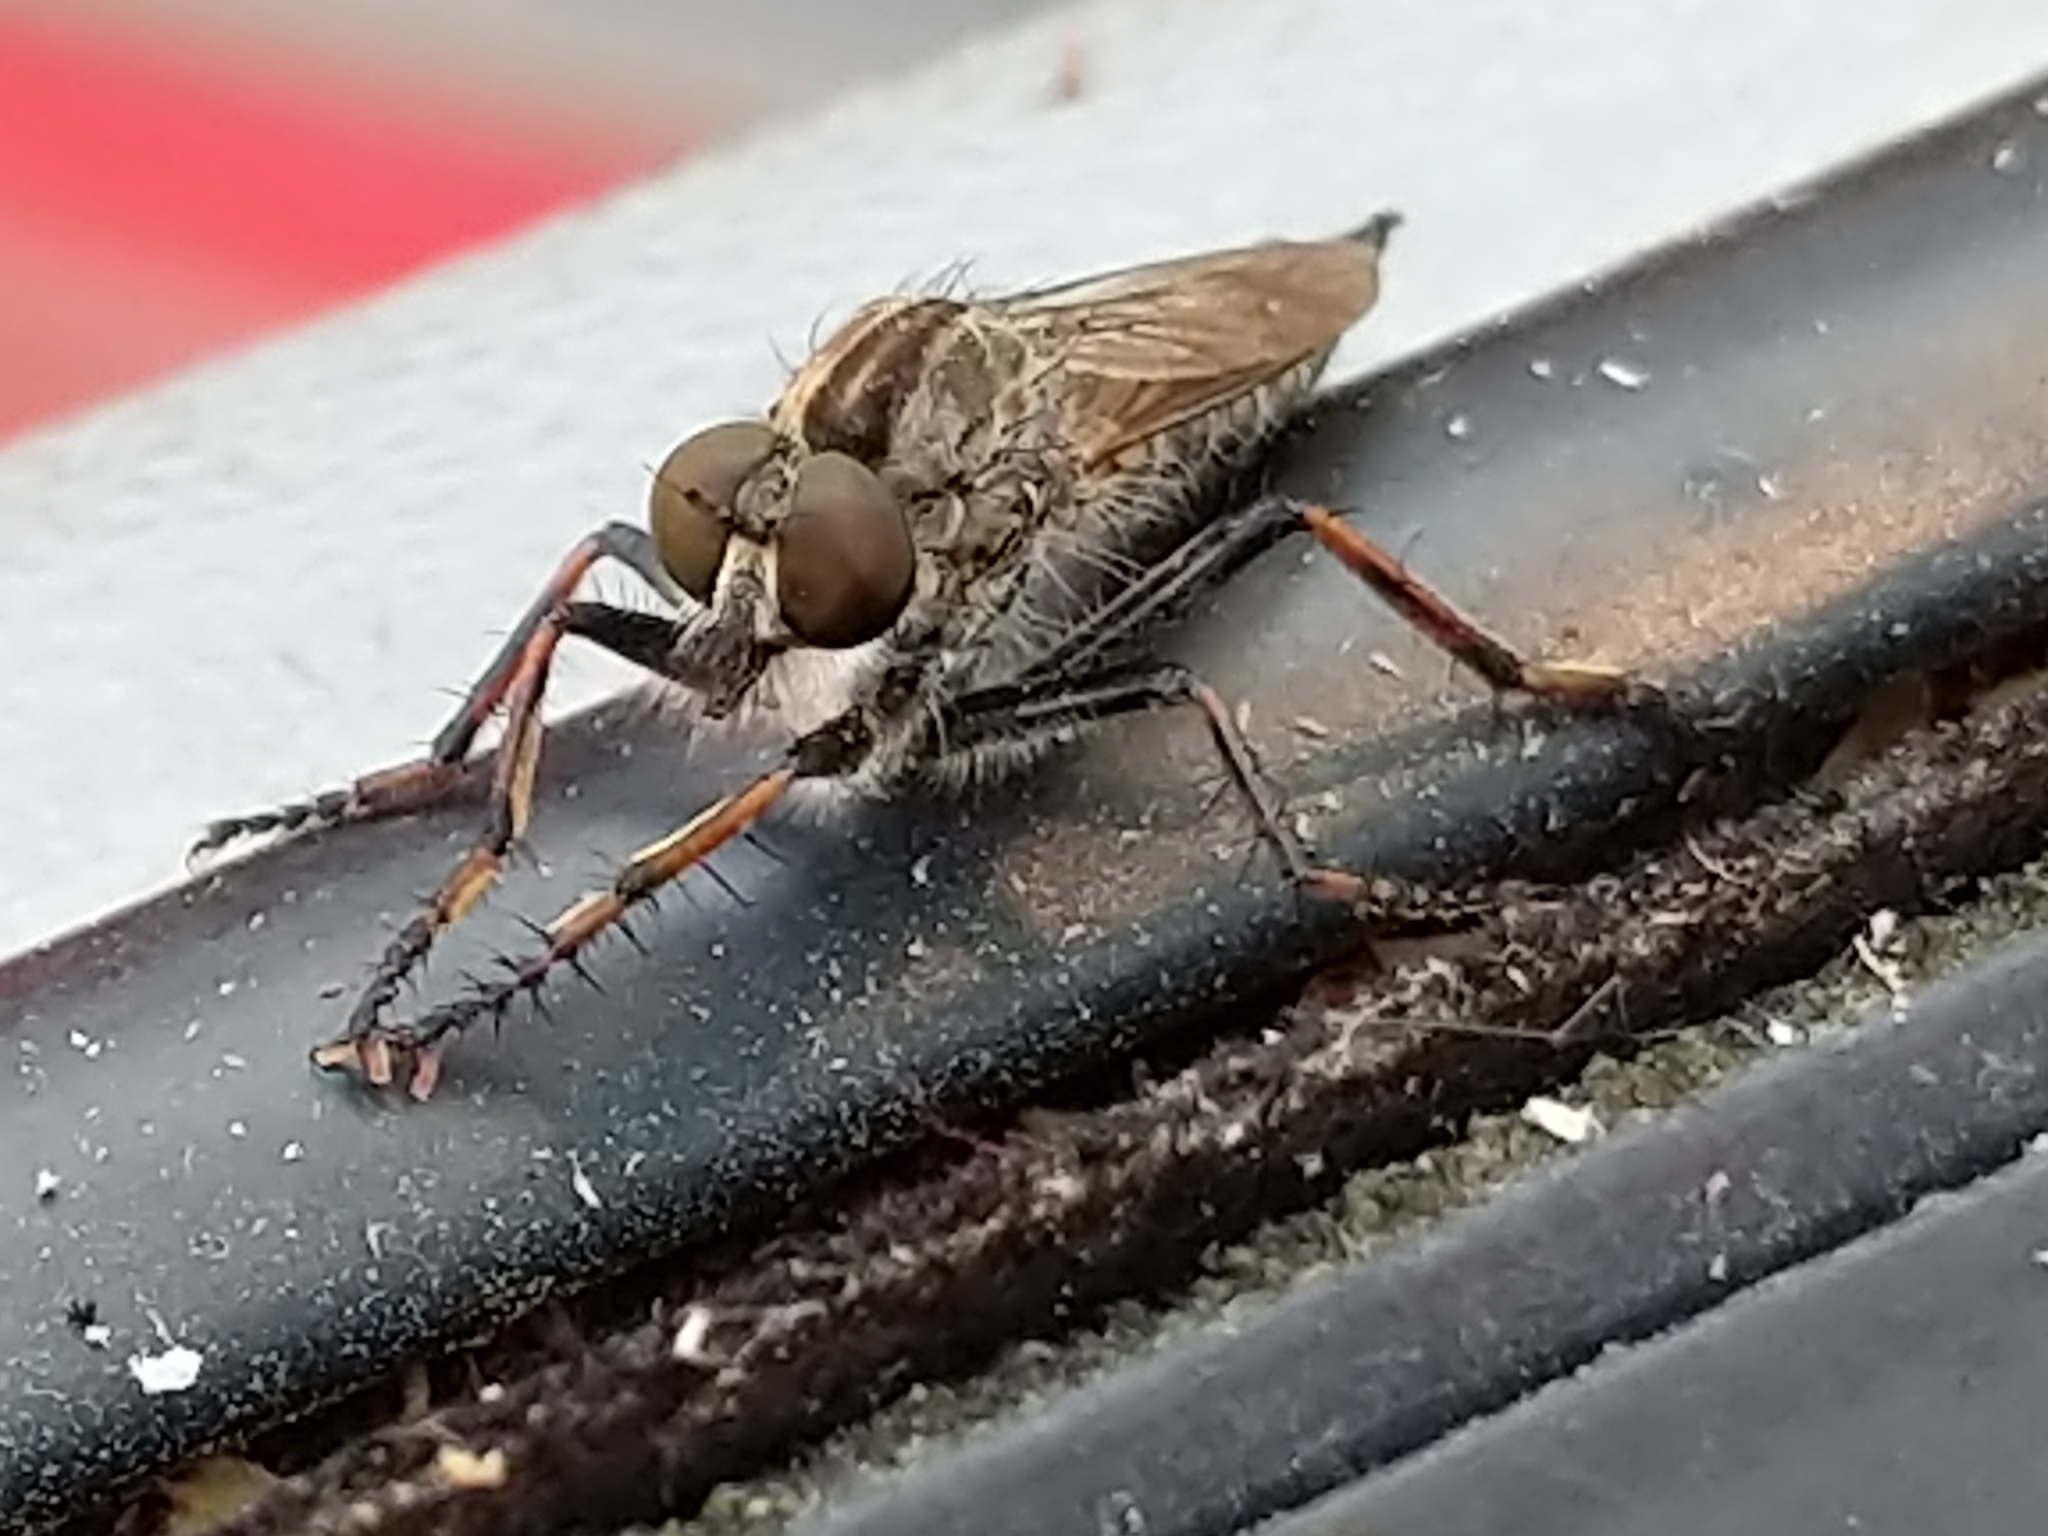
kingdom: Animalia
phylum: Arthropoda
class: Insecta
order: Diptera
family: Asilidae
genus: Machimus
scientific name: Machimus sadyates
